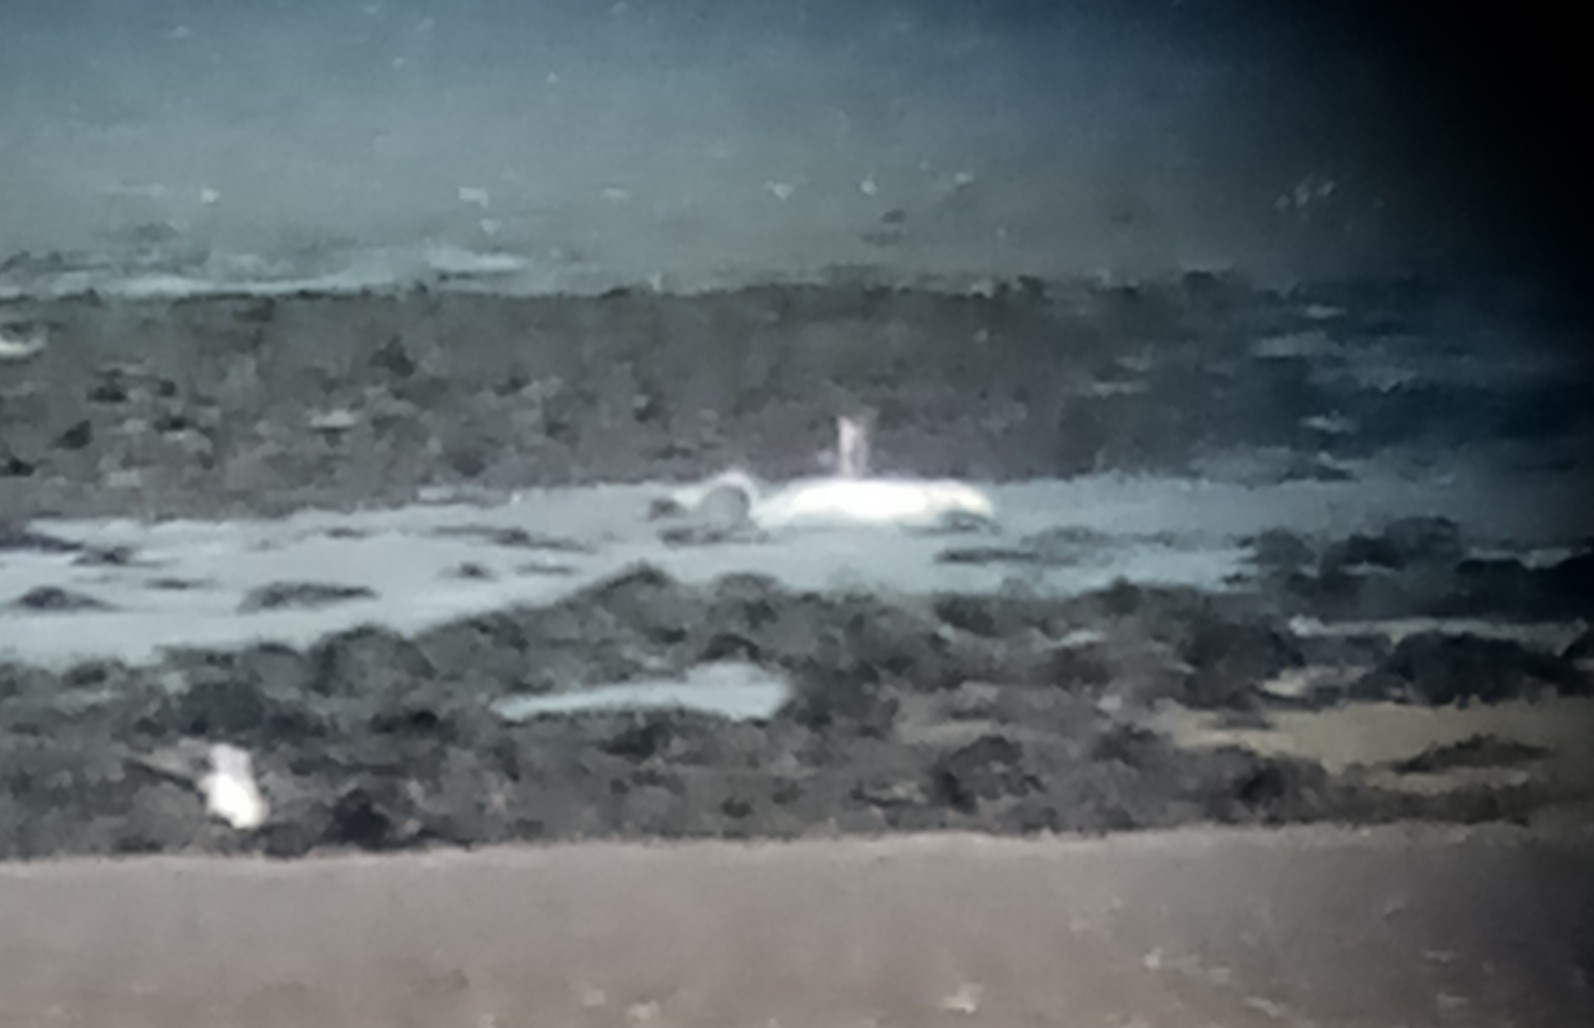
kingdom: Animalia
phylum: Chordata
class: Aves
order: Anseriformes
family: Anatidae
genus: Cygnus
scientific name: Cygnus olor
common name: Mute swan
